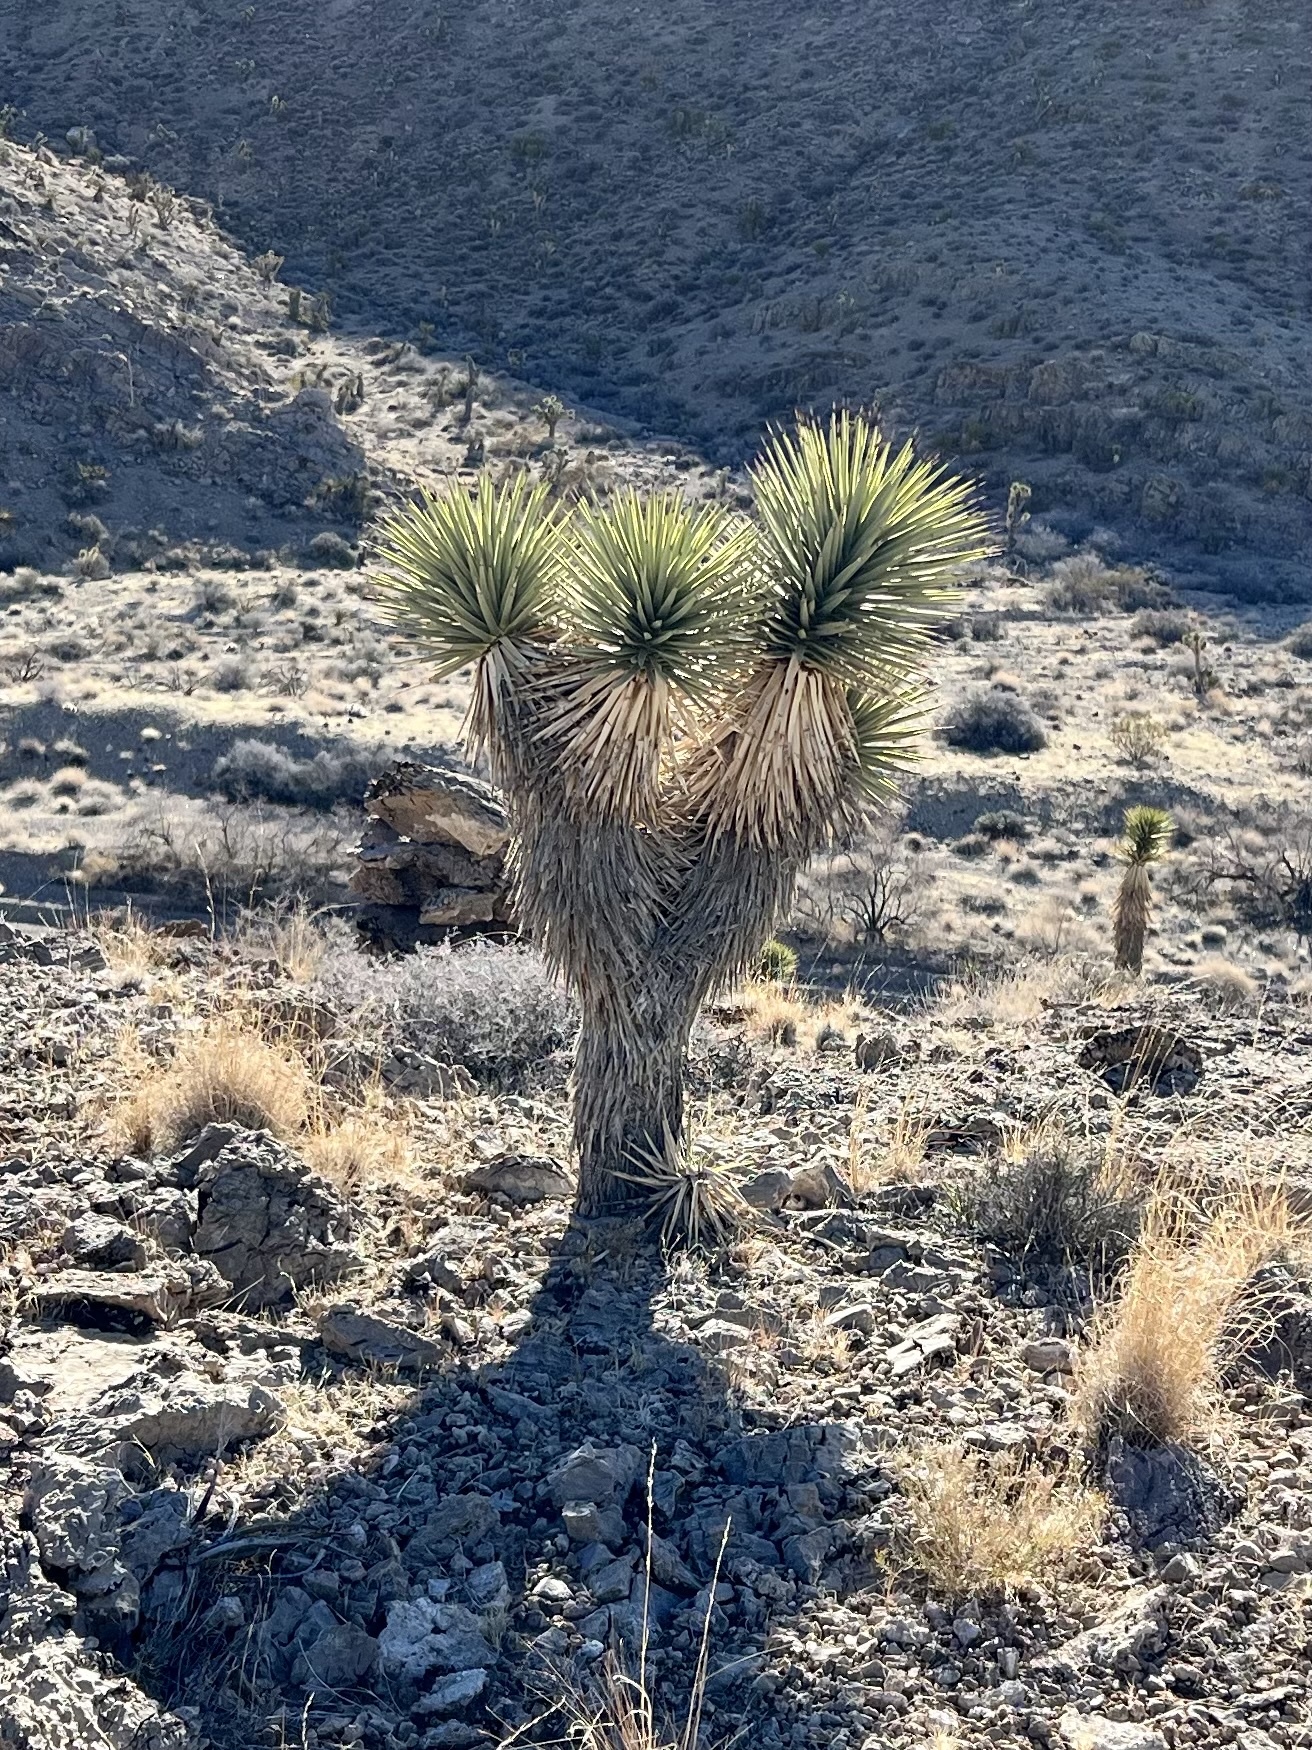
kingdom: Plantae
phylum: Tracheophyta
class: Liliopsida
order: Asparagales
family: Asparagaceae
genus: Yucca
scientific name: Yucca brevifolia
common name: Joshua tree
